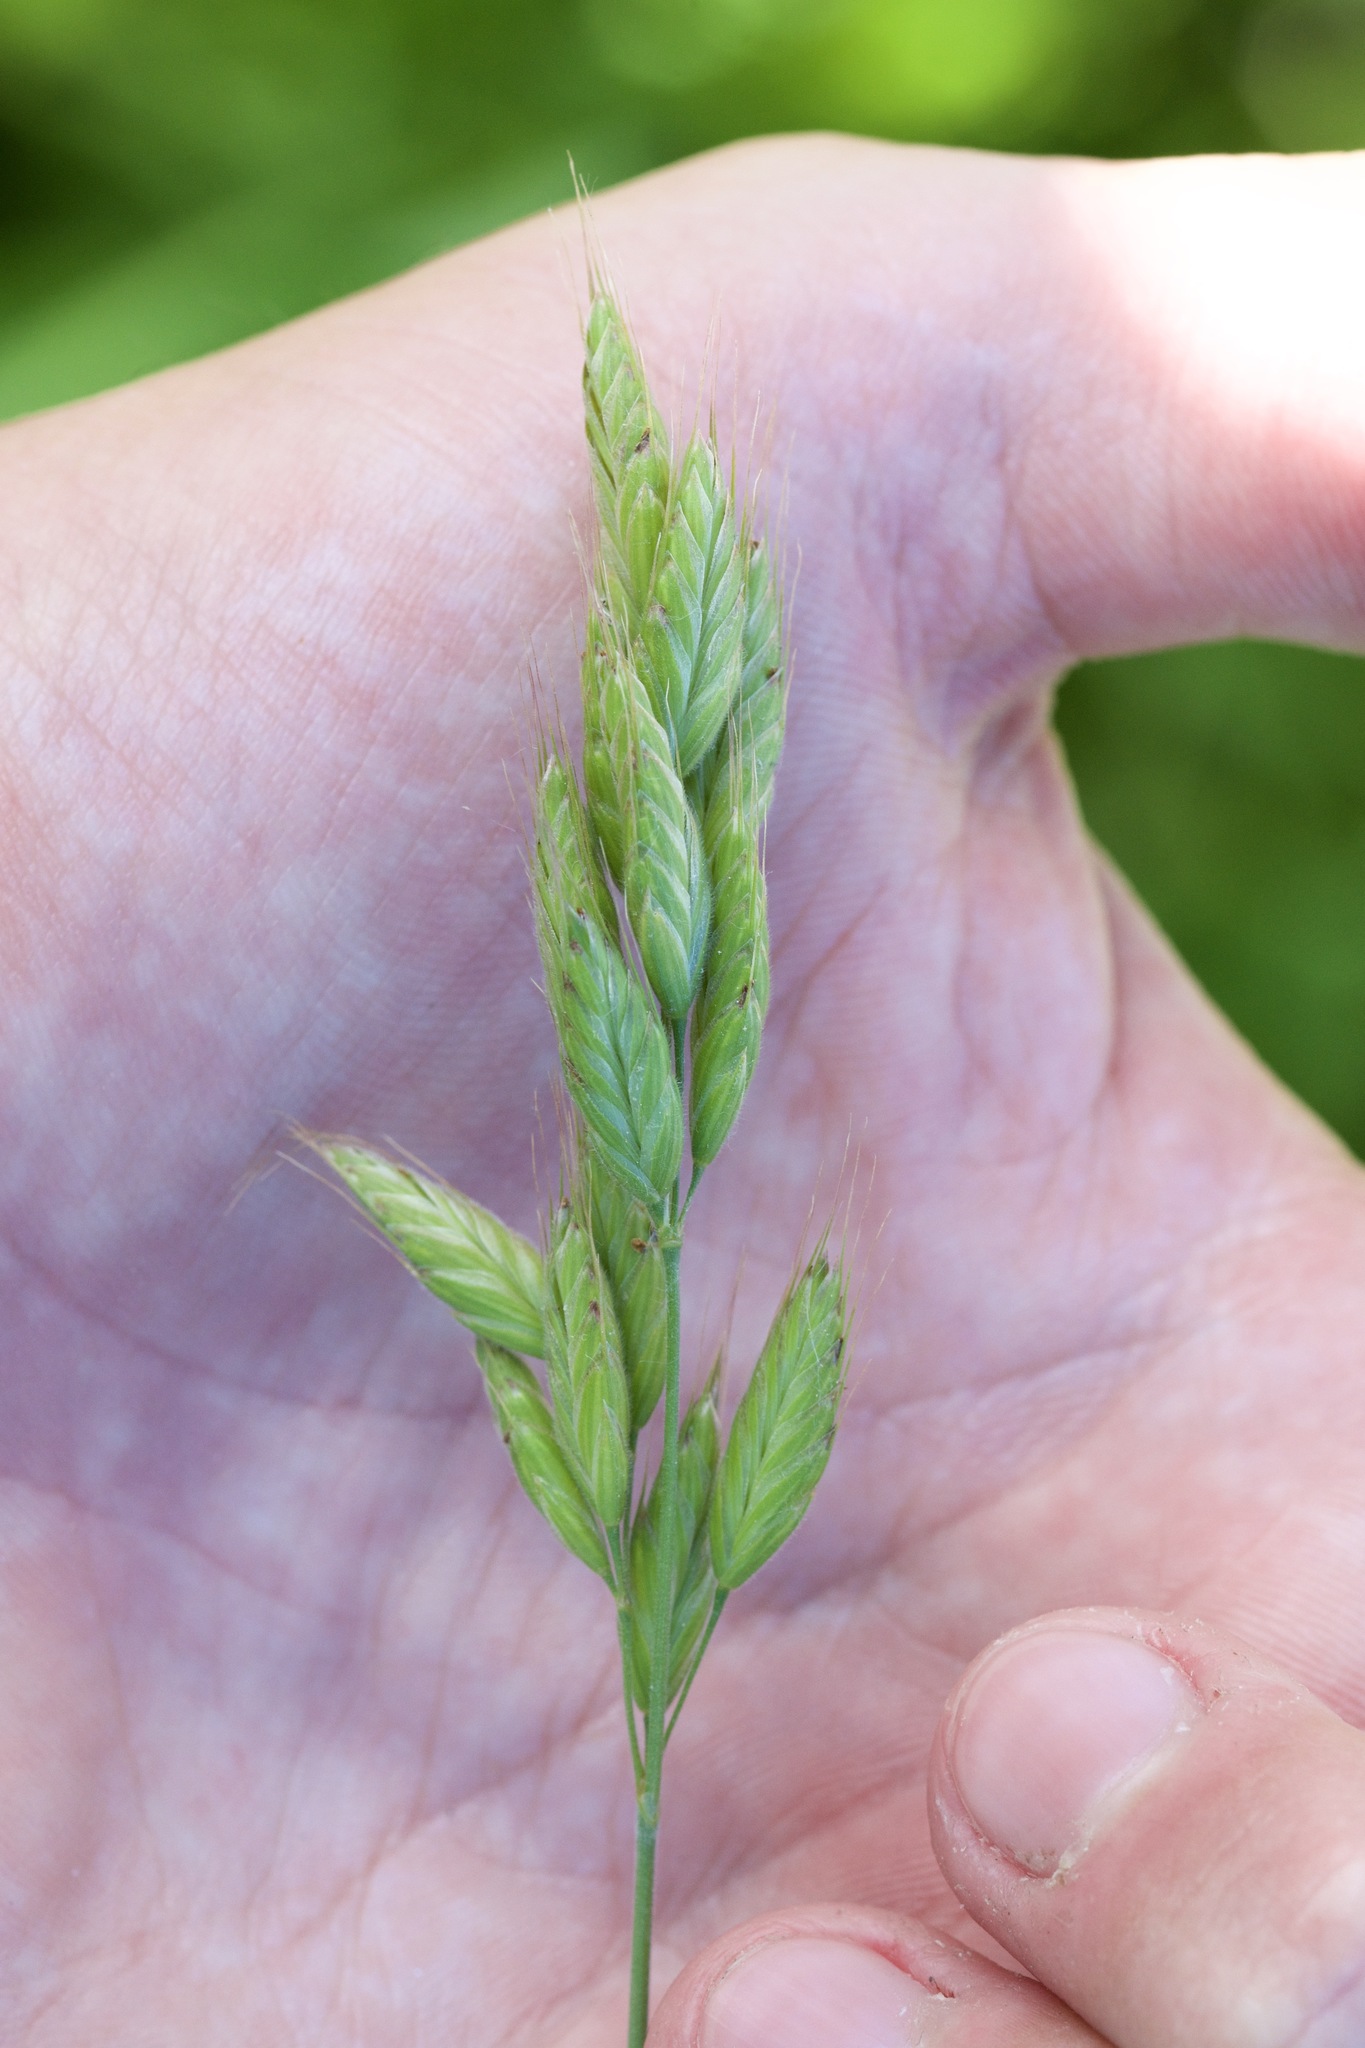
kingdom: Plantae
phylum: Tracheophyta
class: Liliopsida
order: Poales
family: Poaceae
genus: Bromus
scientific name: Bromus hordeaceus
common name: Soft brome
